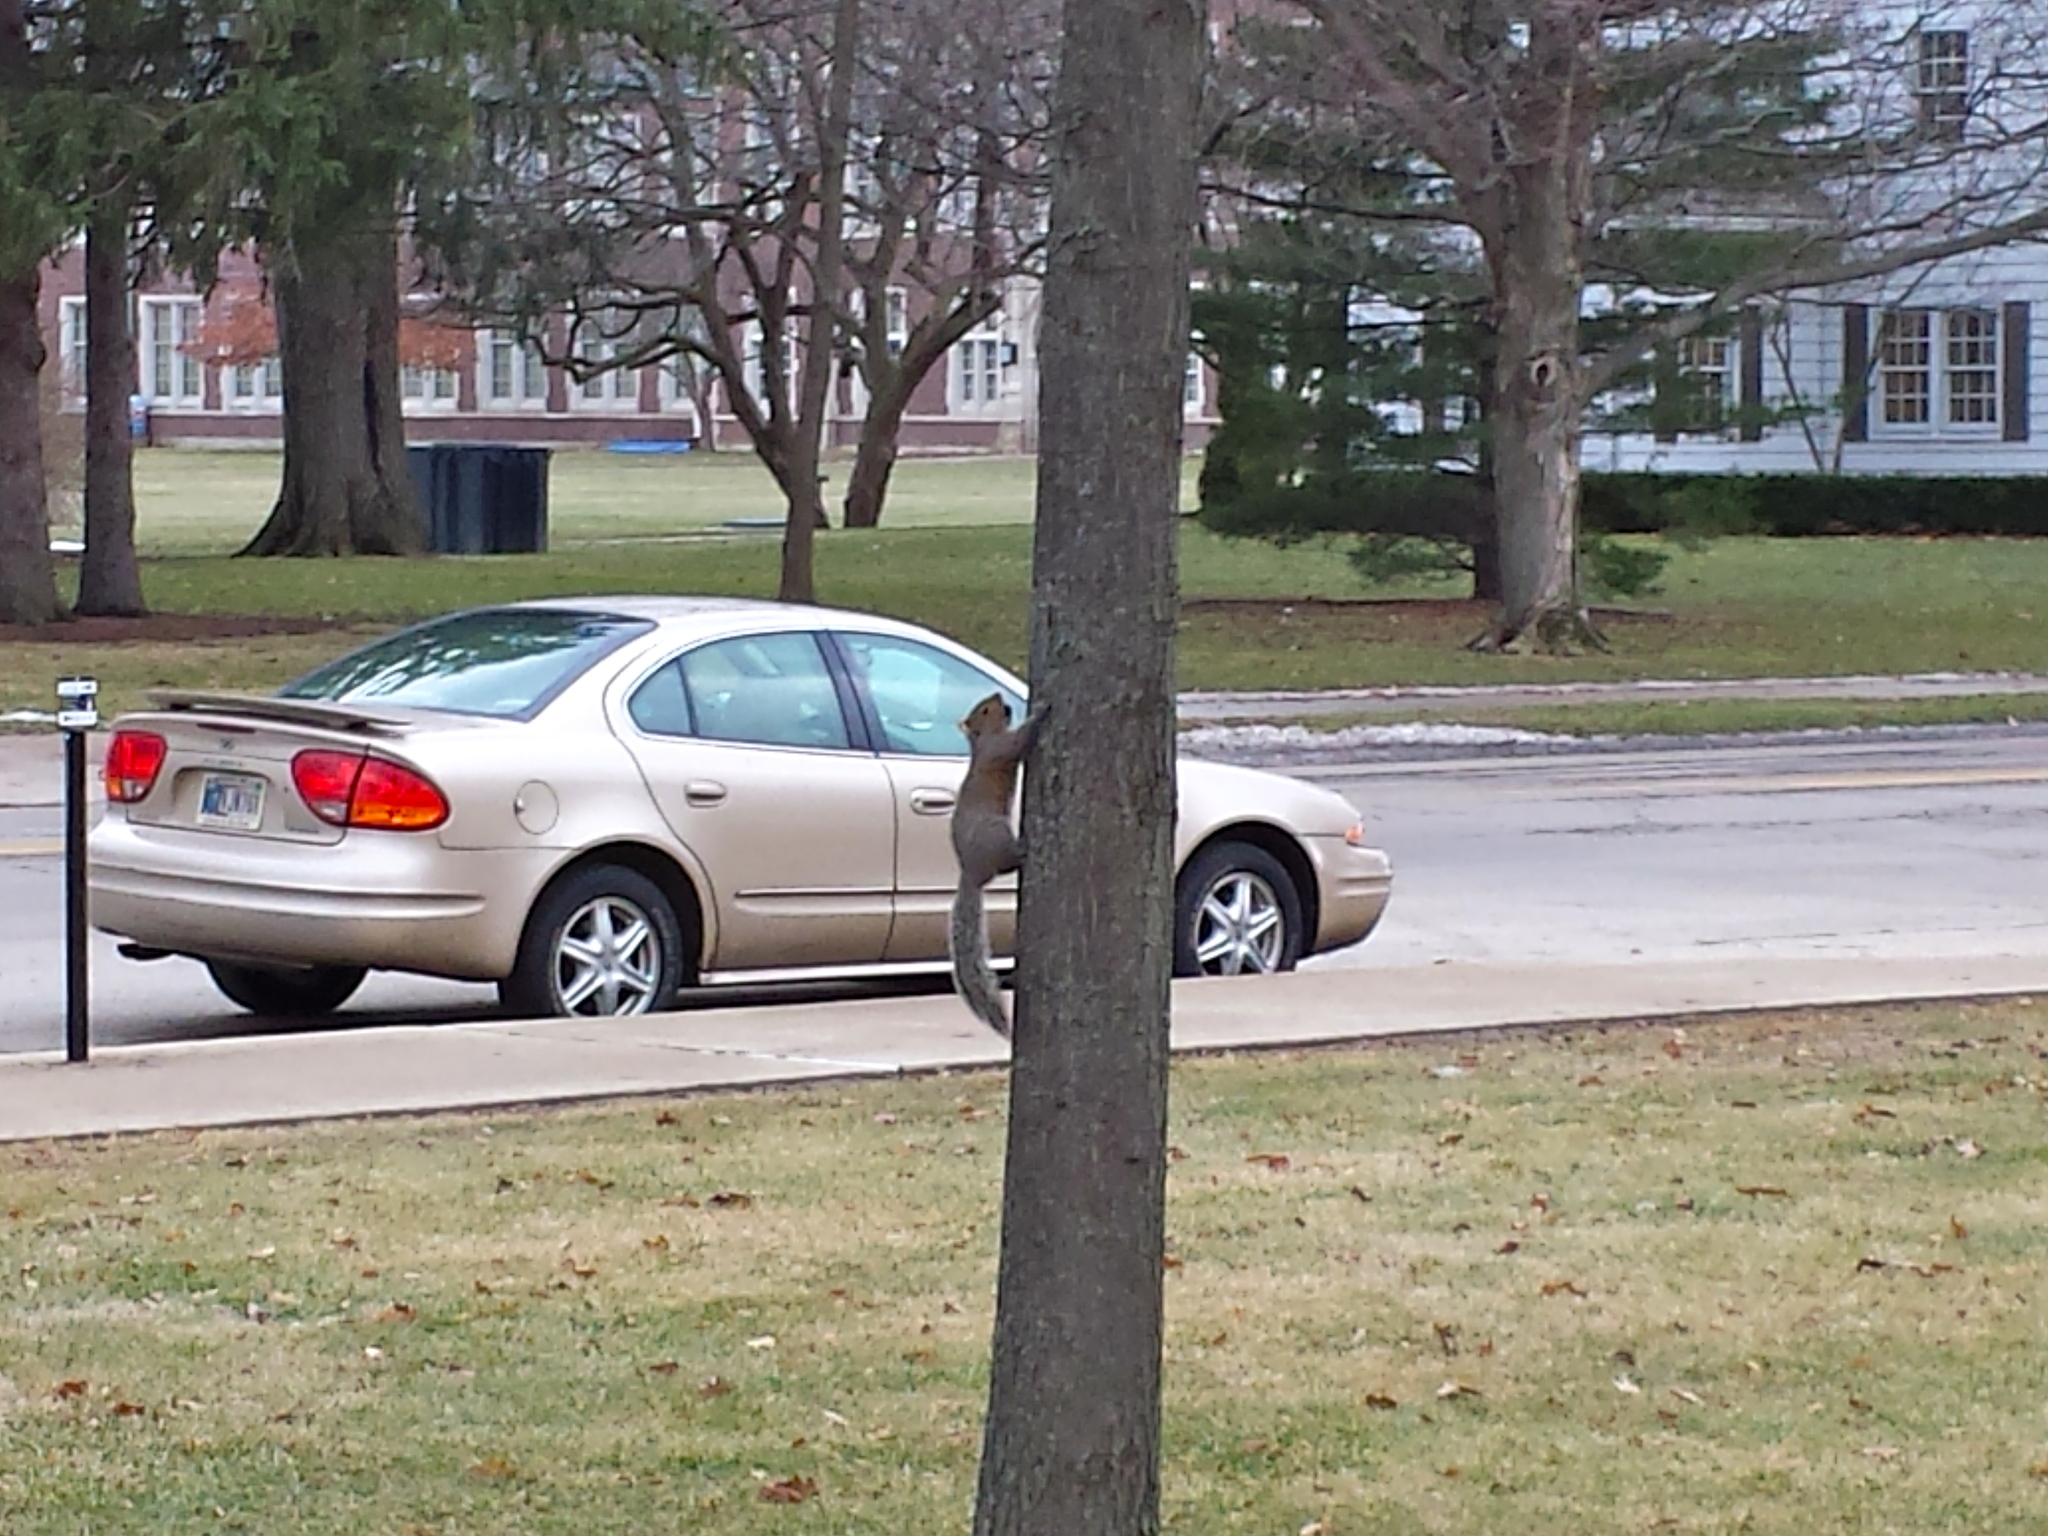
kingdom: Animalia
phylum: Chordata
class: Mammalia
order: Rodentia
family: Sciuridae
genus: Sciurus
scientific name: Sciurus carolinensis
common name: Eastern gray squirrel
